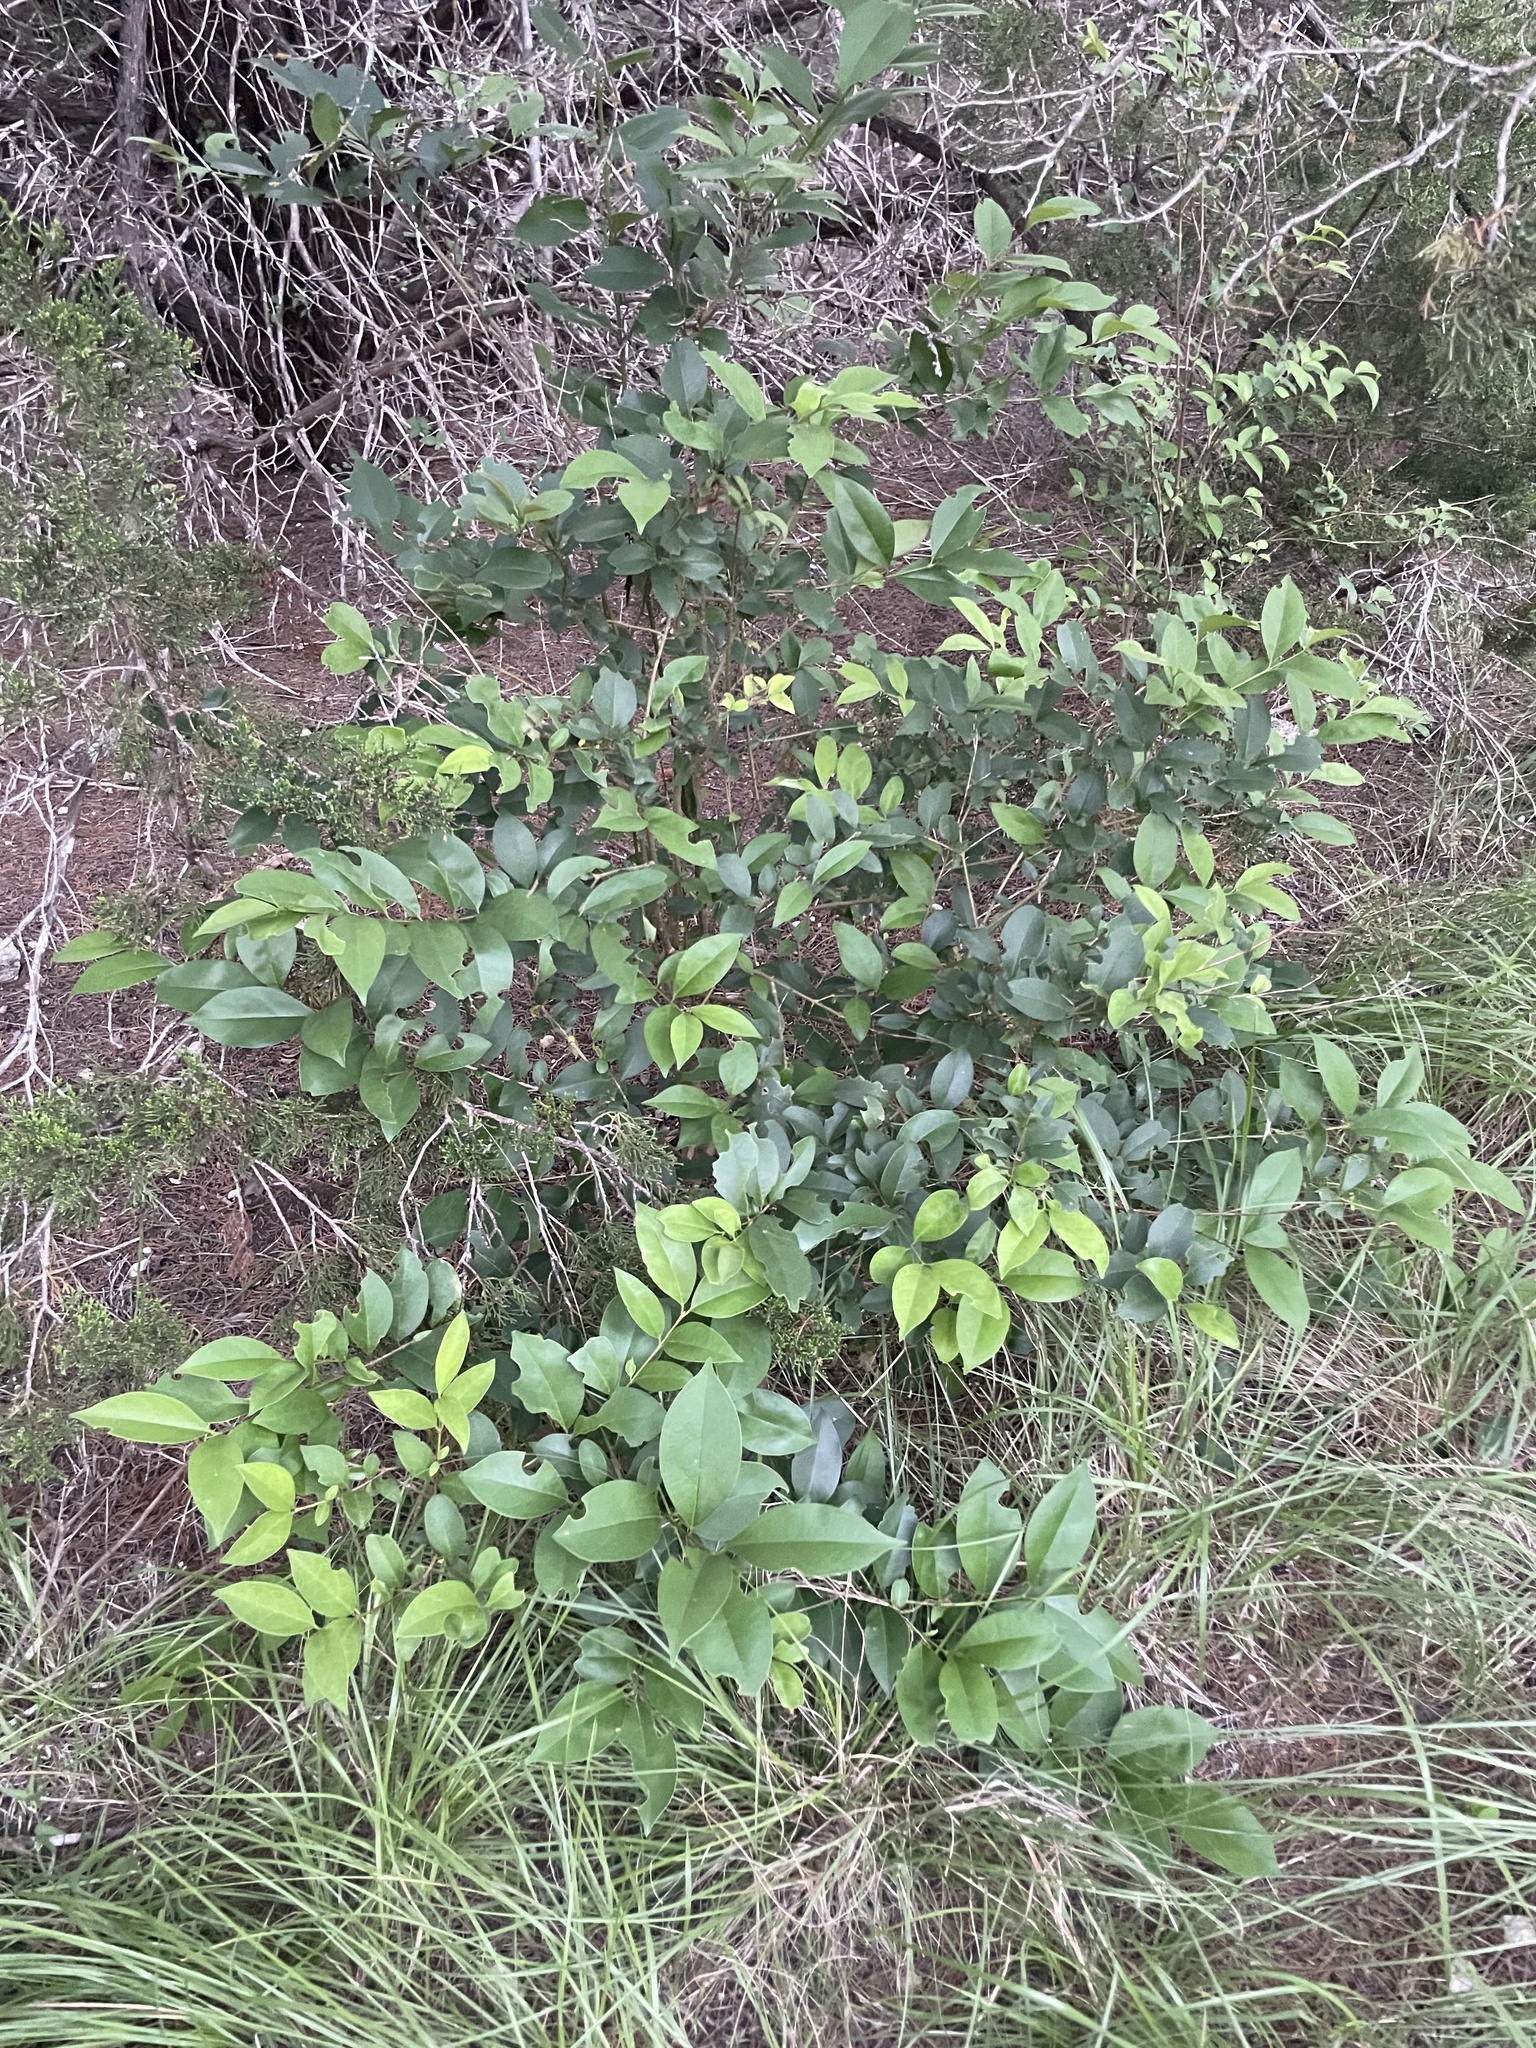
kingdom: Plantae
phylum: Tracheophyta
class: Magnoliopsida
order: Lamiales
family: Oleaceae
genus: Ligustrum
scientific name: Ligustrum lucidum
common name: Glossy privet
